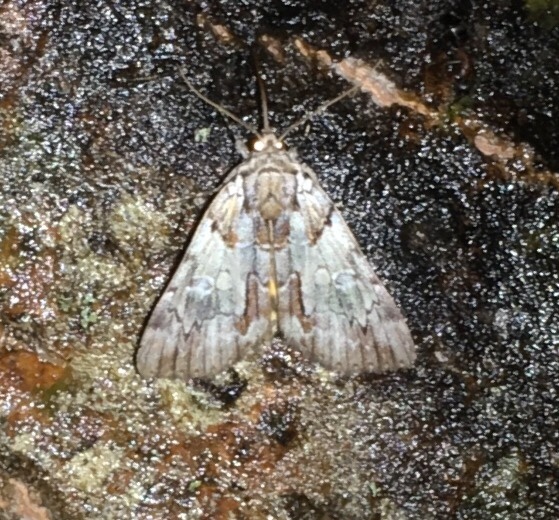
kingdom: Animalia
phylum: Arthropoda
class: Insecta
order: Lepidoptera
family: Erebidae
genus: Catocala
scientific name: Catocala praeclara
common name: Praeclara underwing
